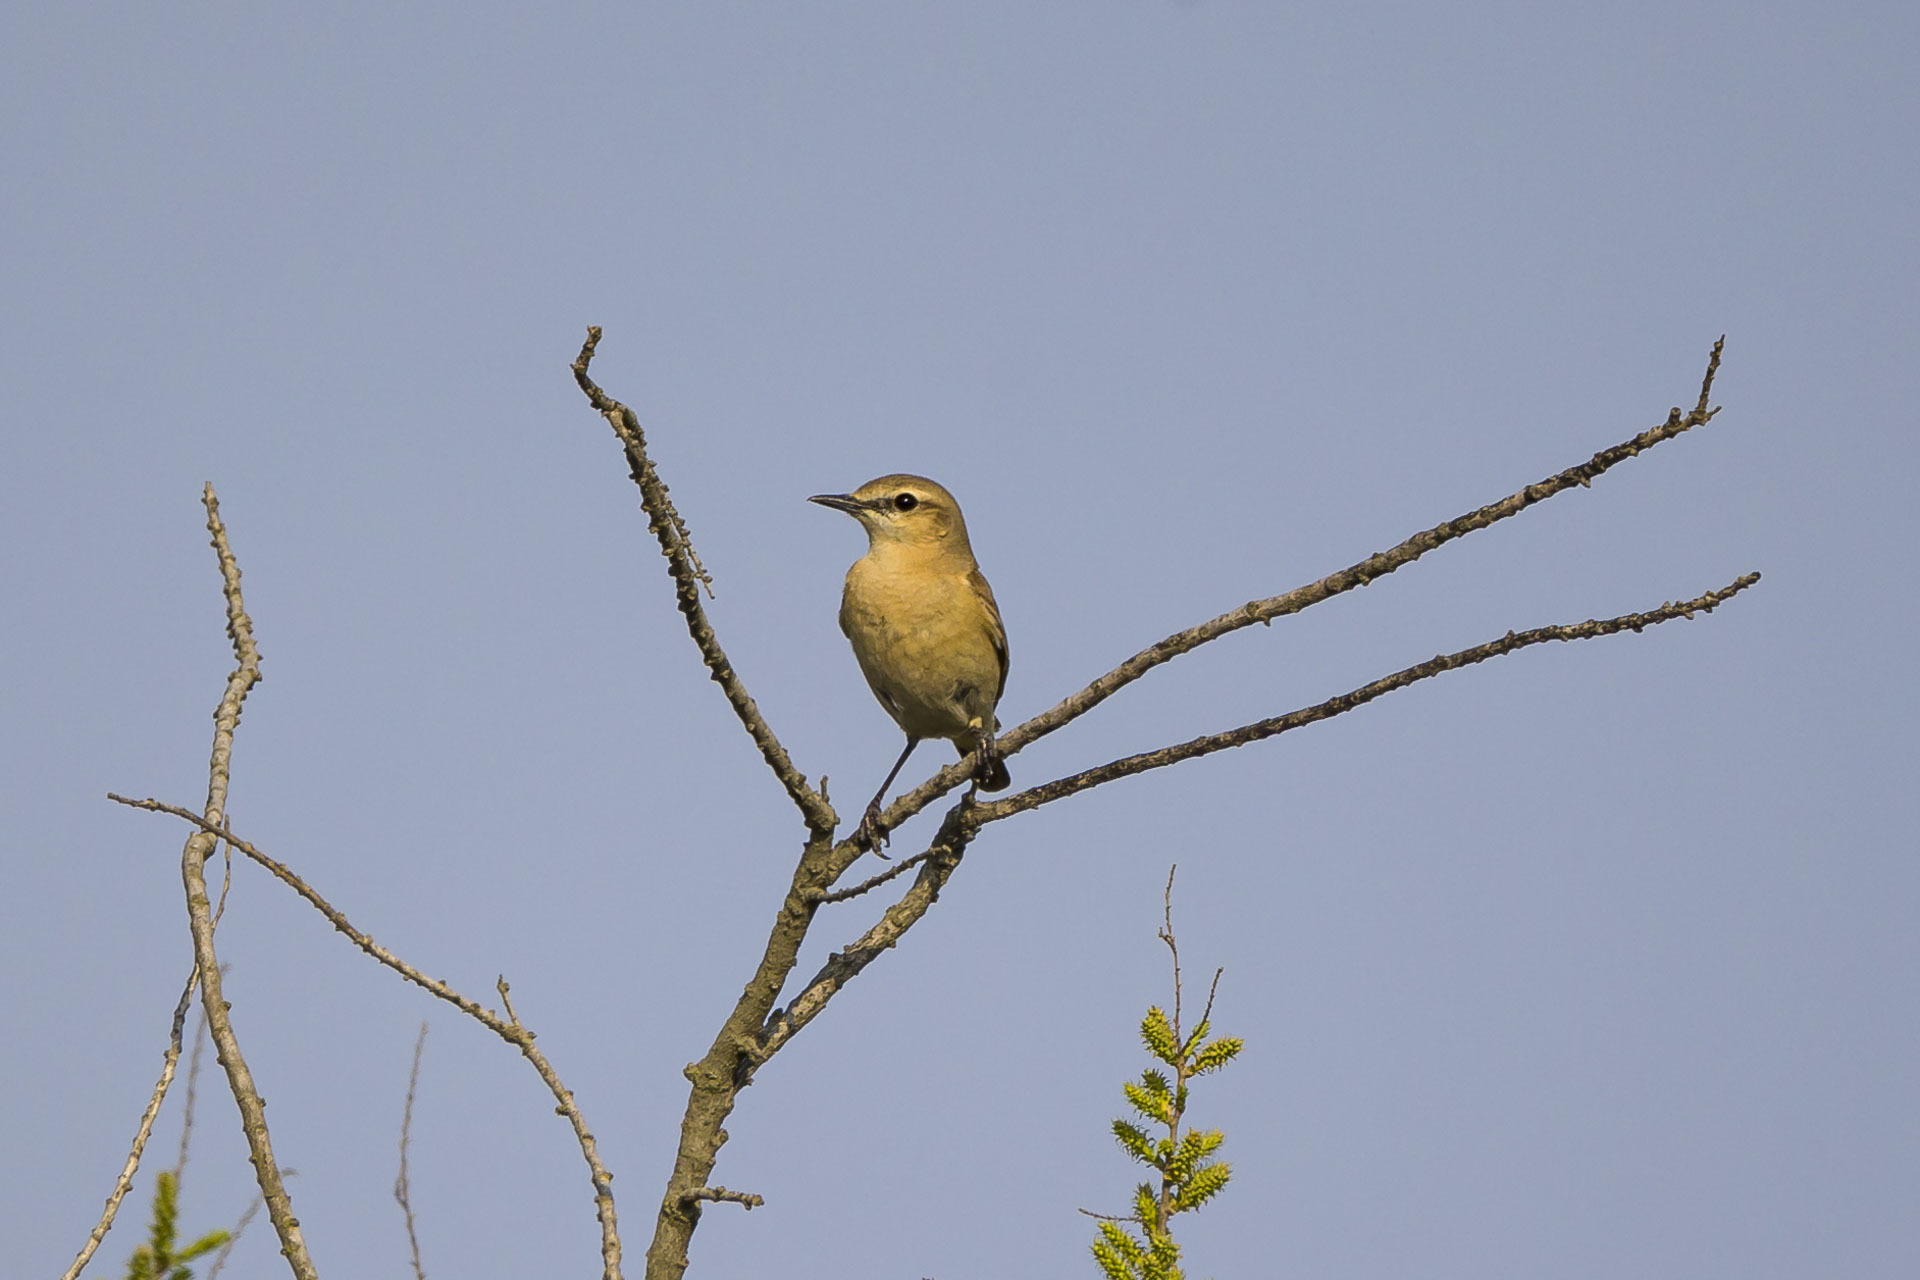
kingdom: Animalia
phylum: Chordata
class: Aves
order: Passeriformes
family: Muscicapidae
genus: Oenanthe
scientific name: Oenanthe isabellina
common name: Isabelline wheatear
